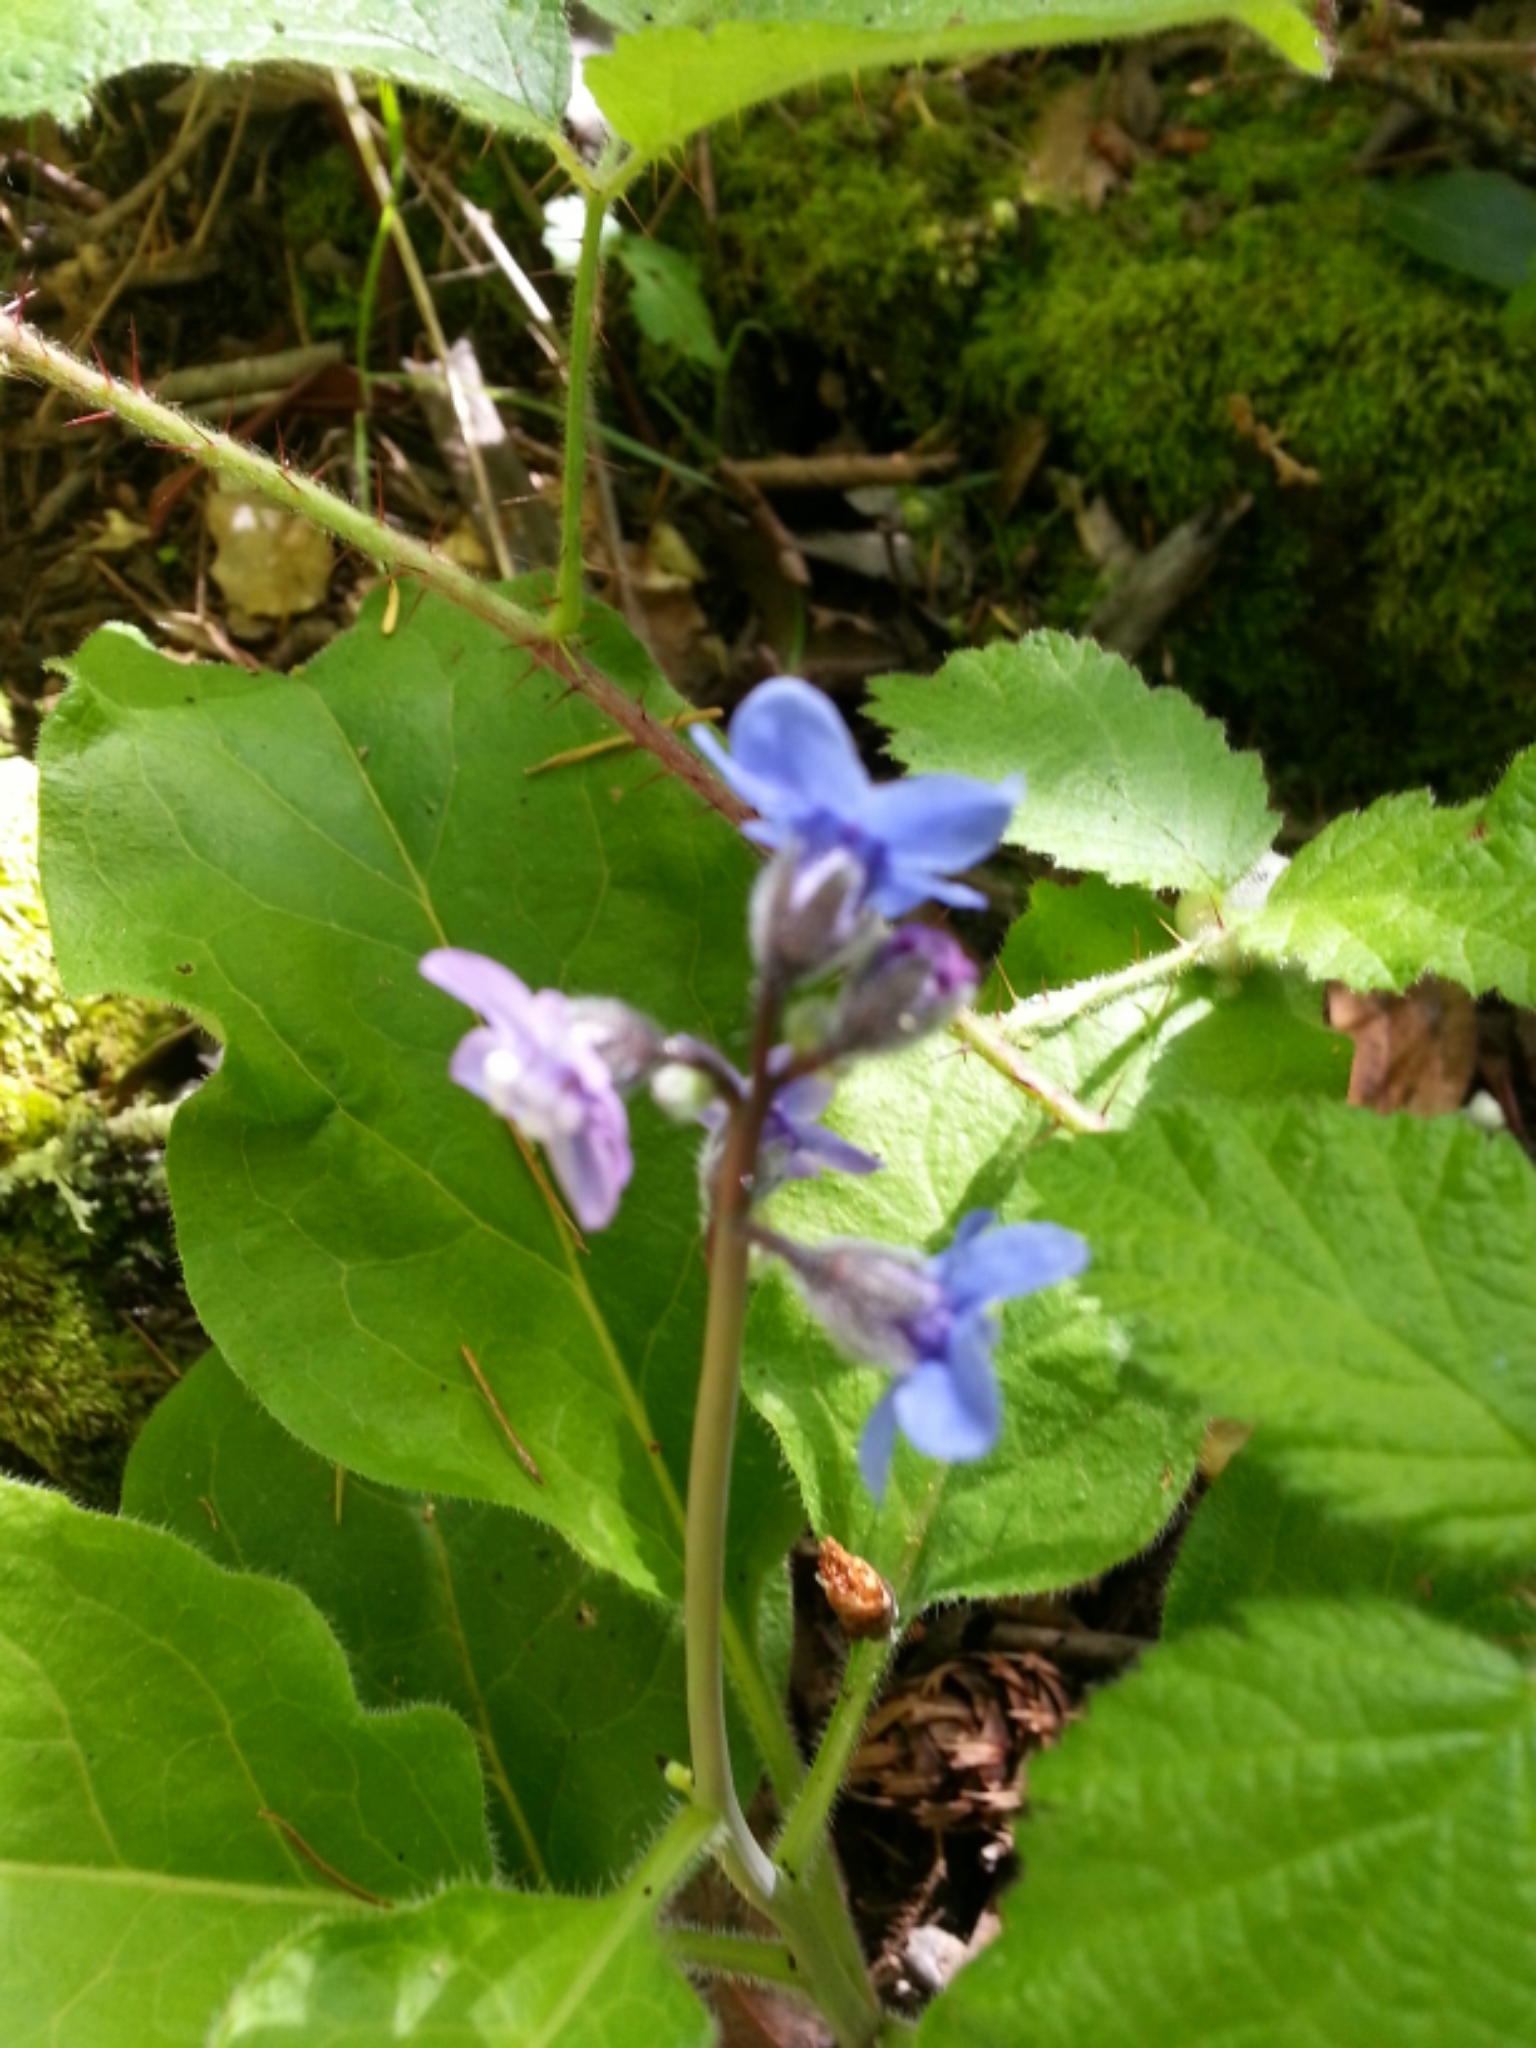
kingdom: Plantae
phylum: Tracheophyta
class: Magnoliopsida
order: Boraginales
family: Boraginaceae
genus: Adelinia
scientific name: Adelinia grande
